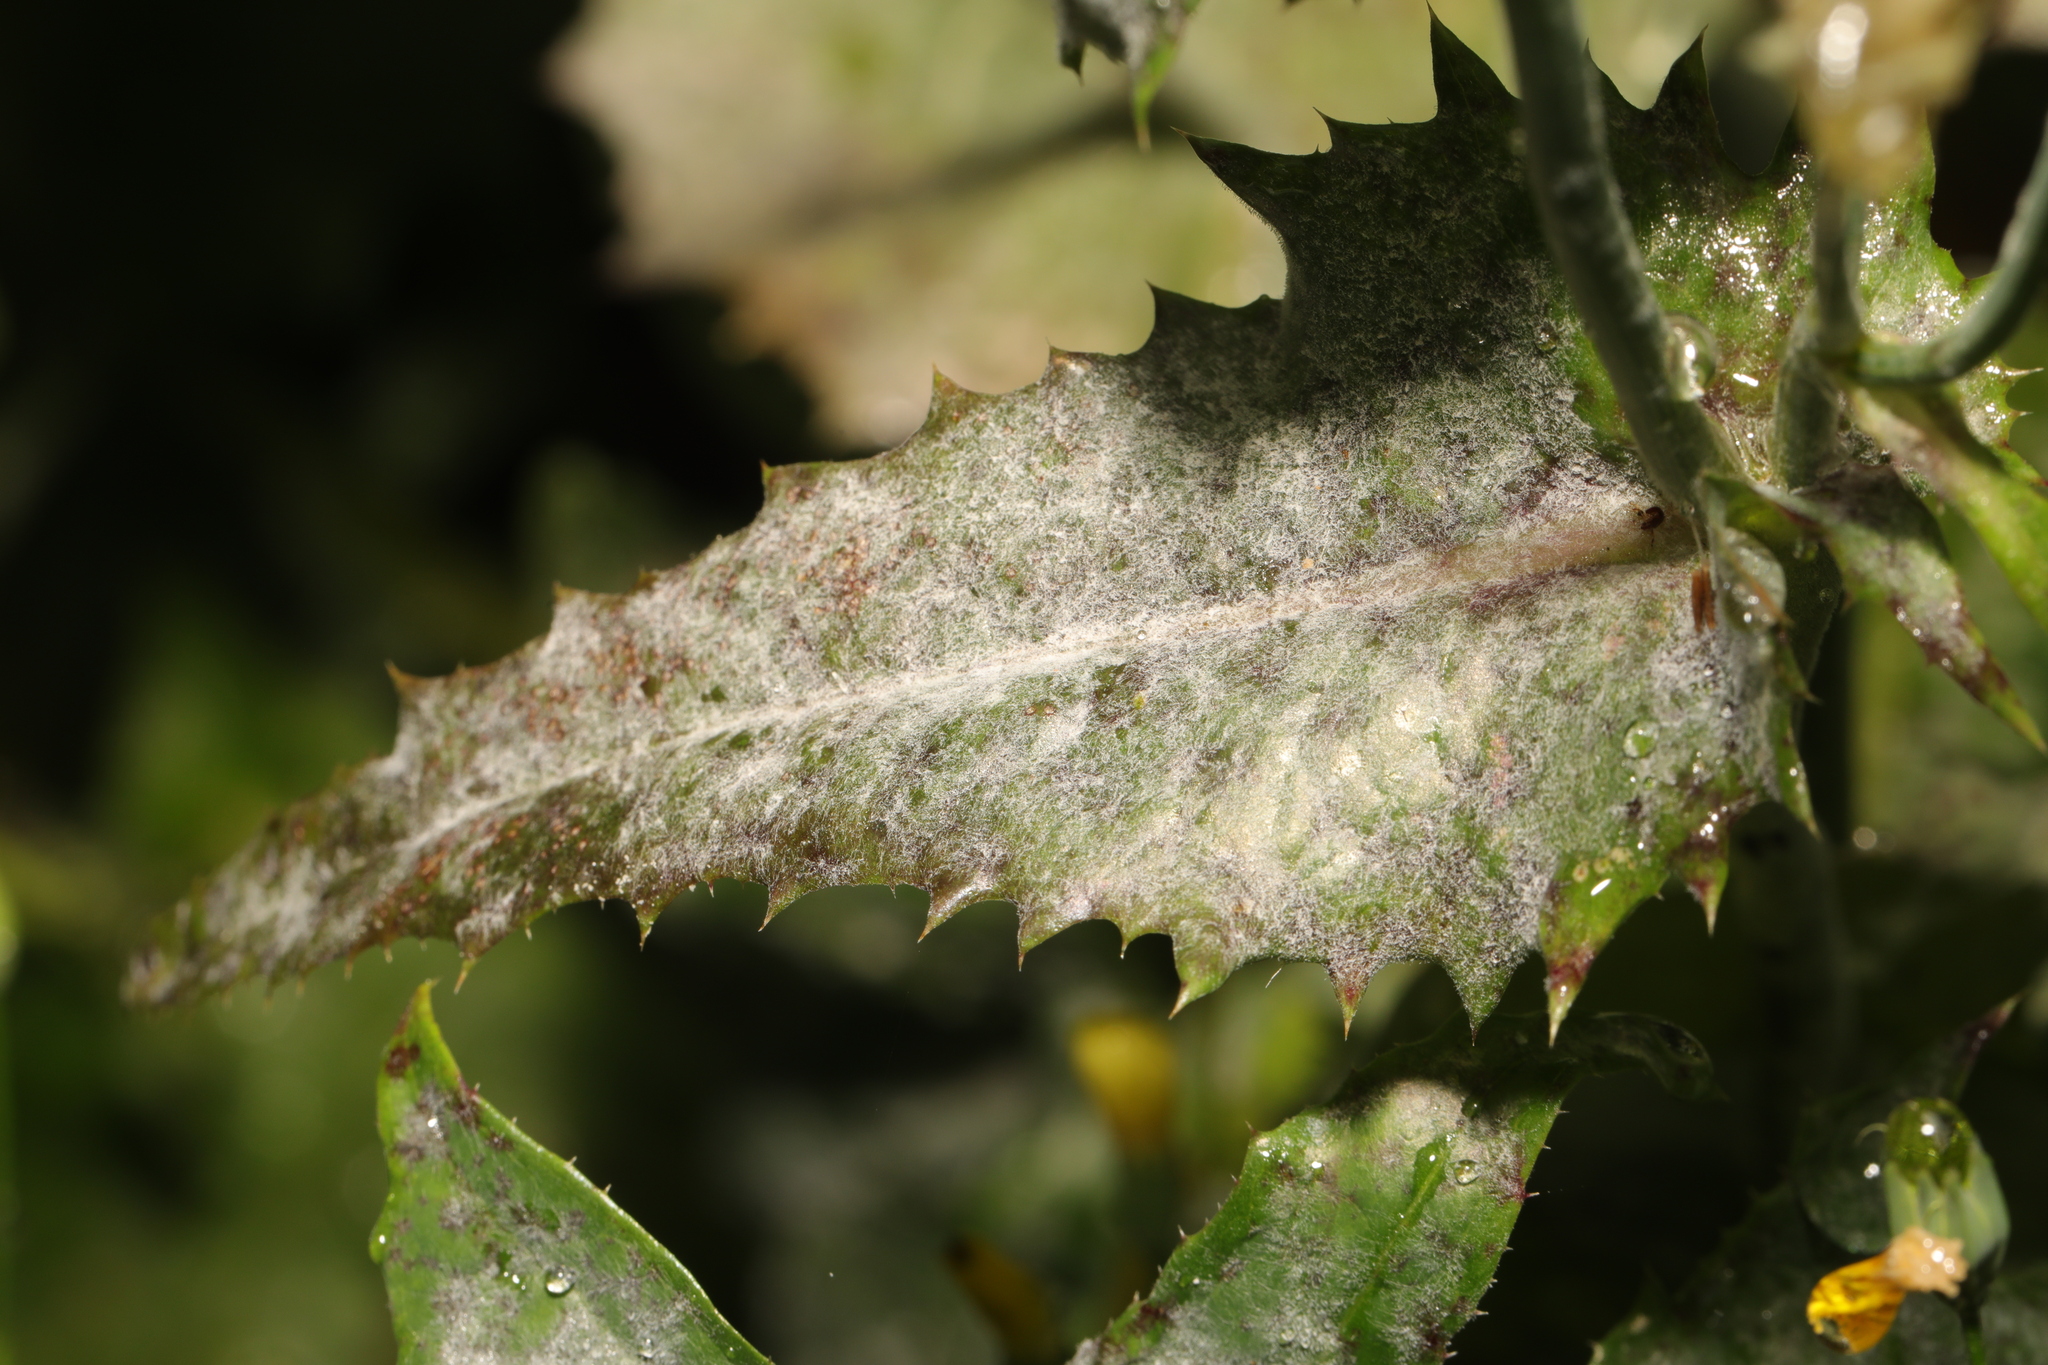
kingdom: Fungi
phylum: Ascomycota
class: Leotiomycetes
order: Helotiales
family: Erysiphaceae
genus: Golovinomyces
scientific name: Golovinomyces sonchicola
